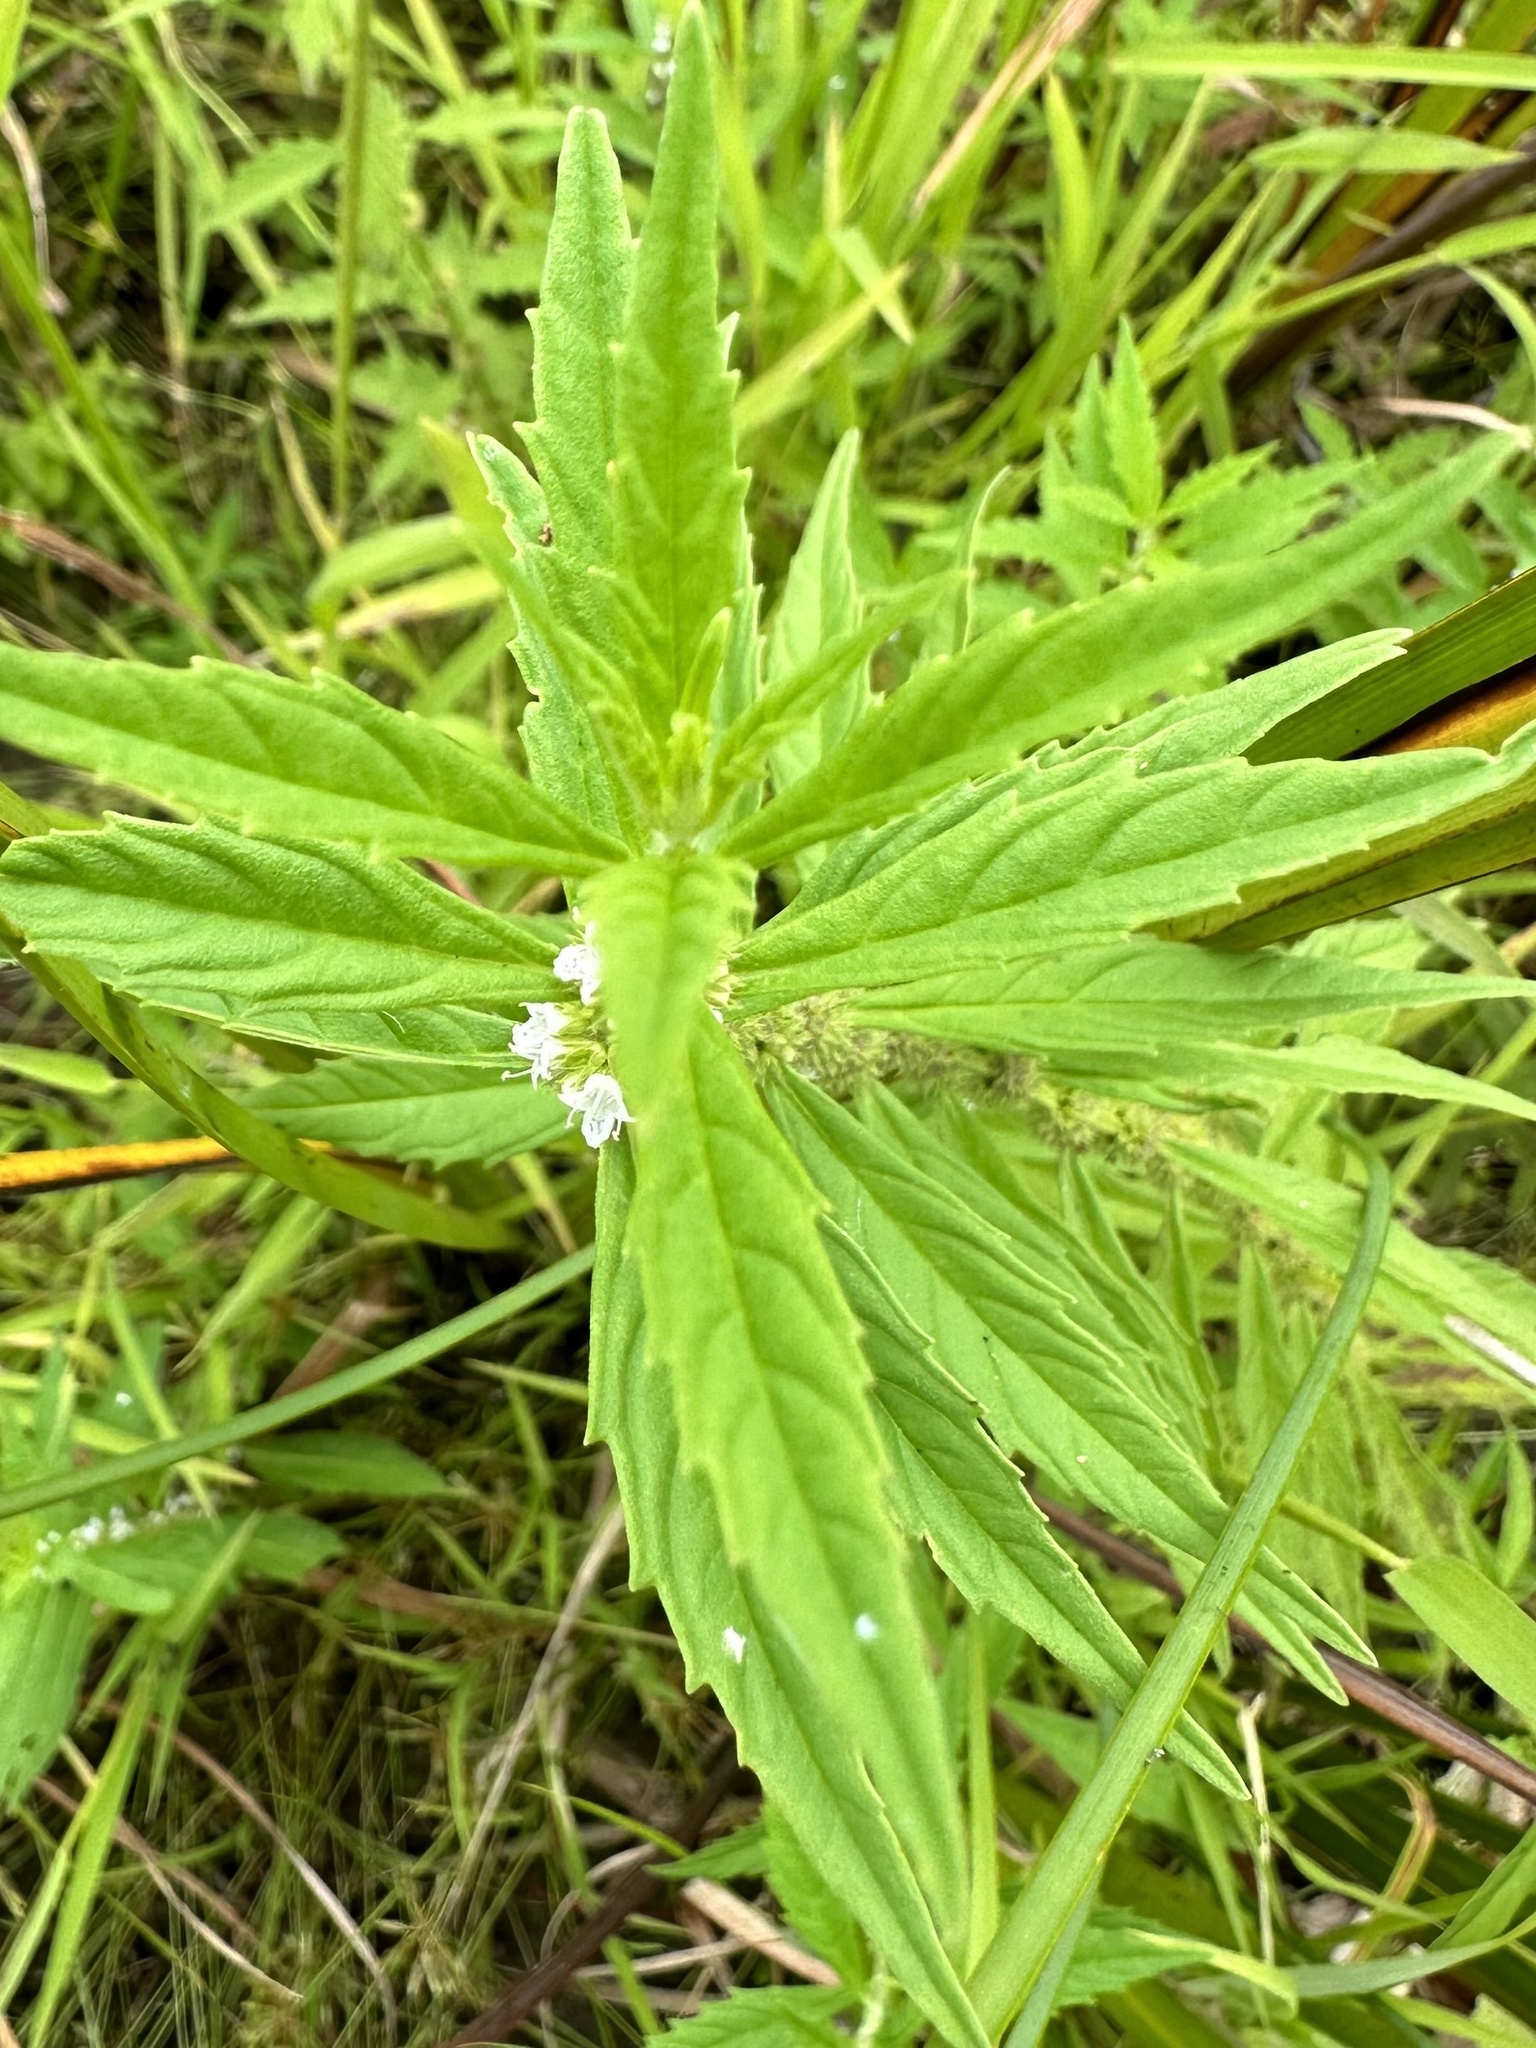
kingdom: Plantae
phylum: Tracheophyta
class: Magnoliopsida
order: Lamiales
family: Lamiaceae
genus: Lycopus
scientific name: Lycopus americanus
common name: American bugleweed
